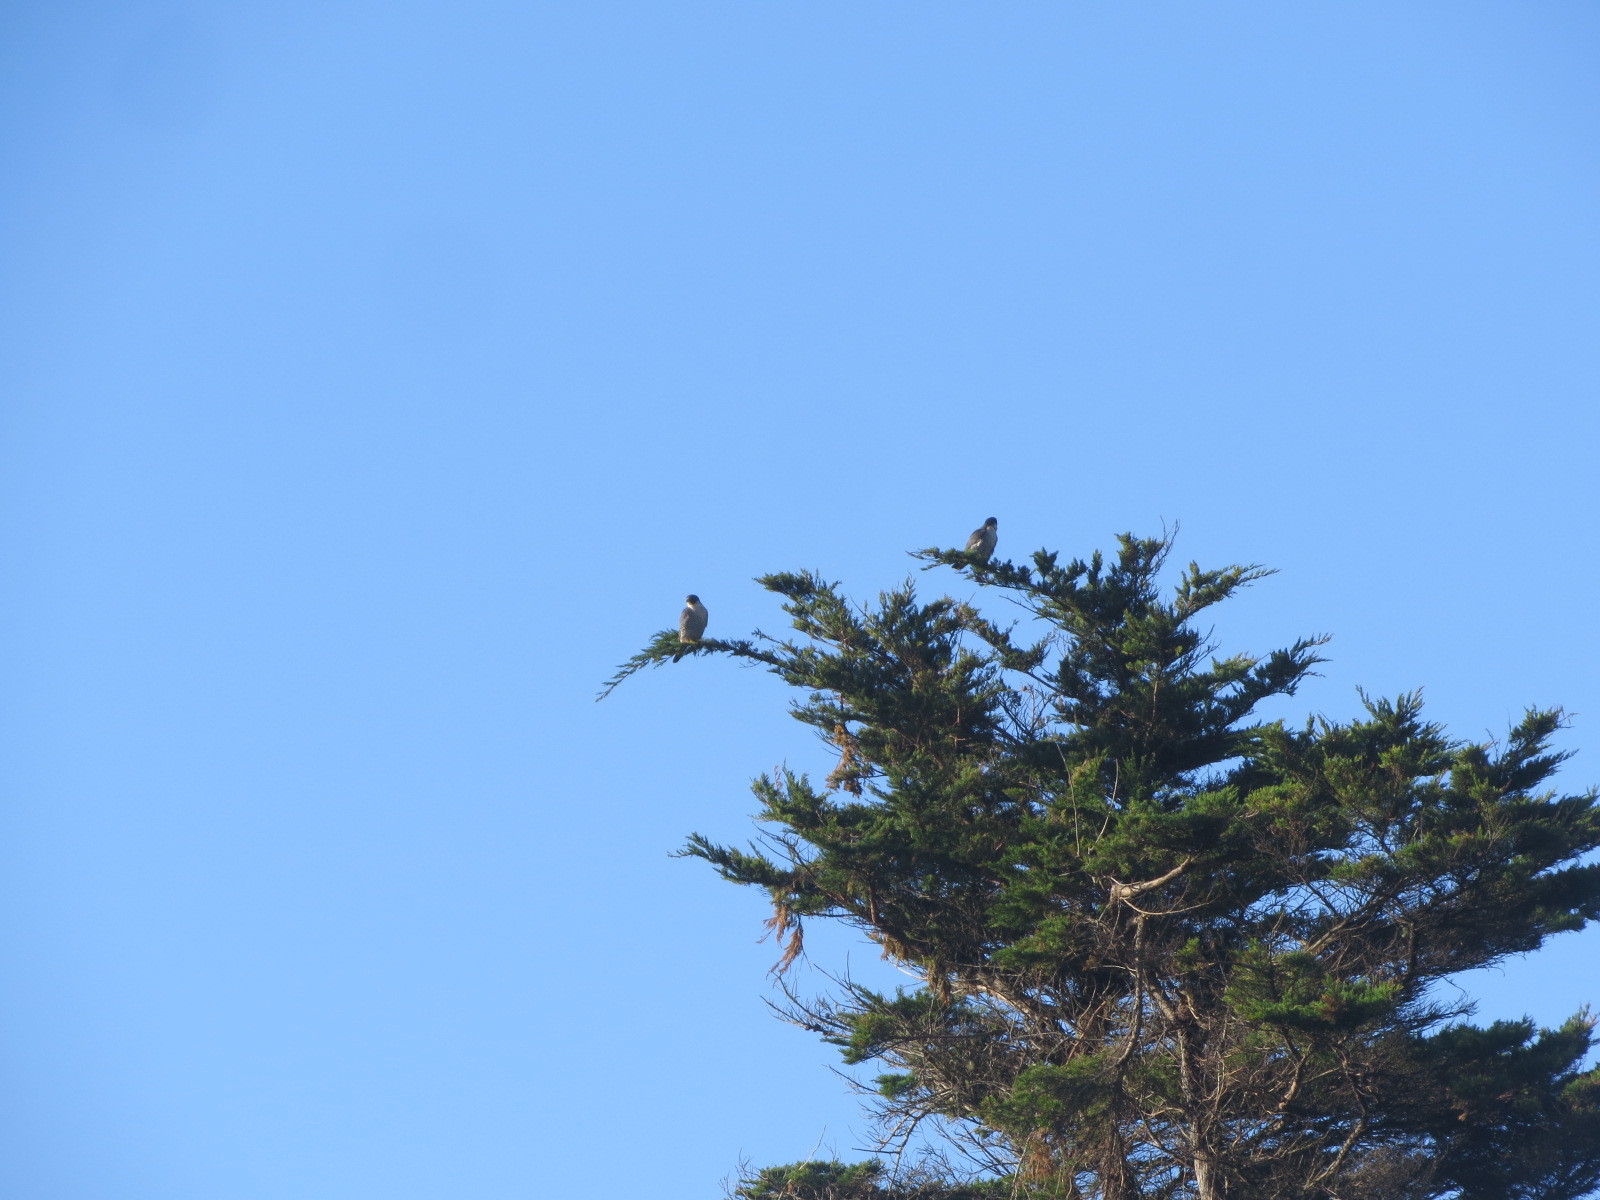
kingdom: Animalia
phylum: Chordata
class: Aves
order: Falconiformes
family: Falconidae
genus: Falco
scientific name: Falco peregrinus
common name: Peregrine falcon
